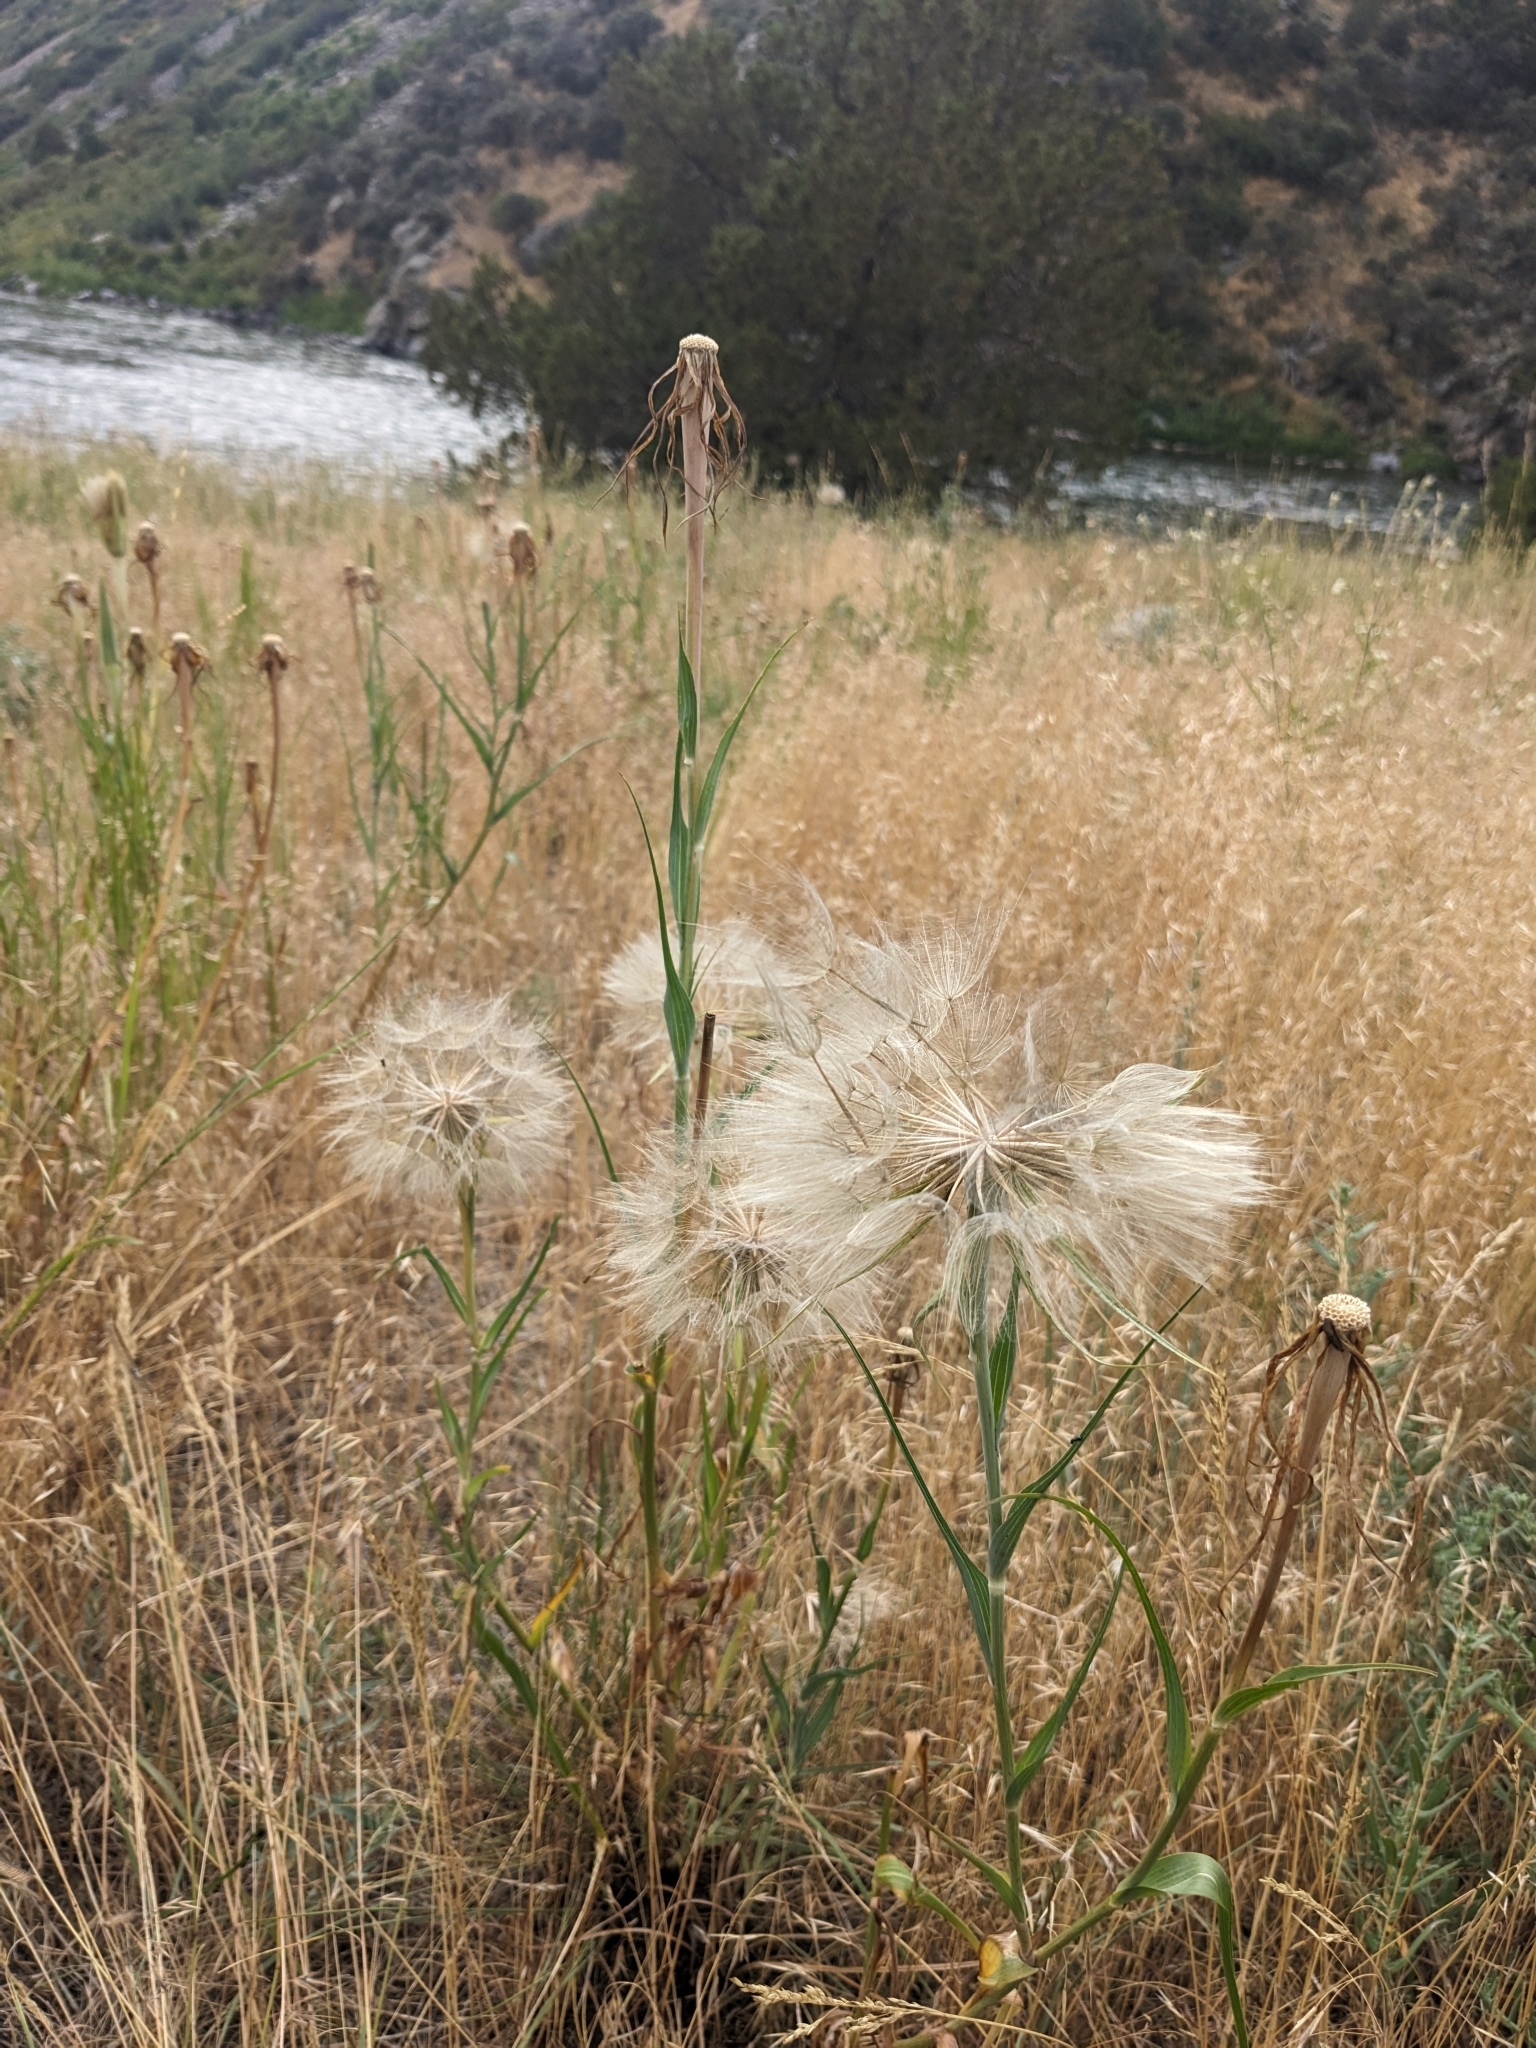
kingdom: Plantae
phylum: Tracheophyta
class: Magnoliopsida
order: Asterales
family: Asteraceae
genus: Tragopogon
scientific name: Tragopogon dubius
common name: Yellow salsify
